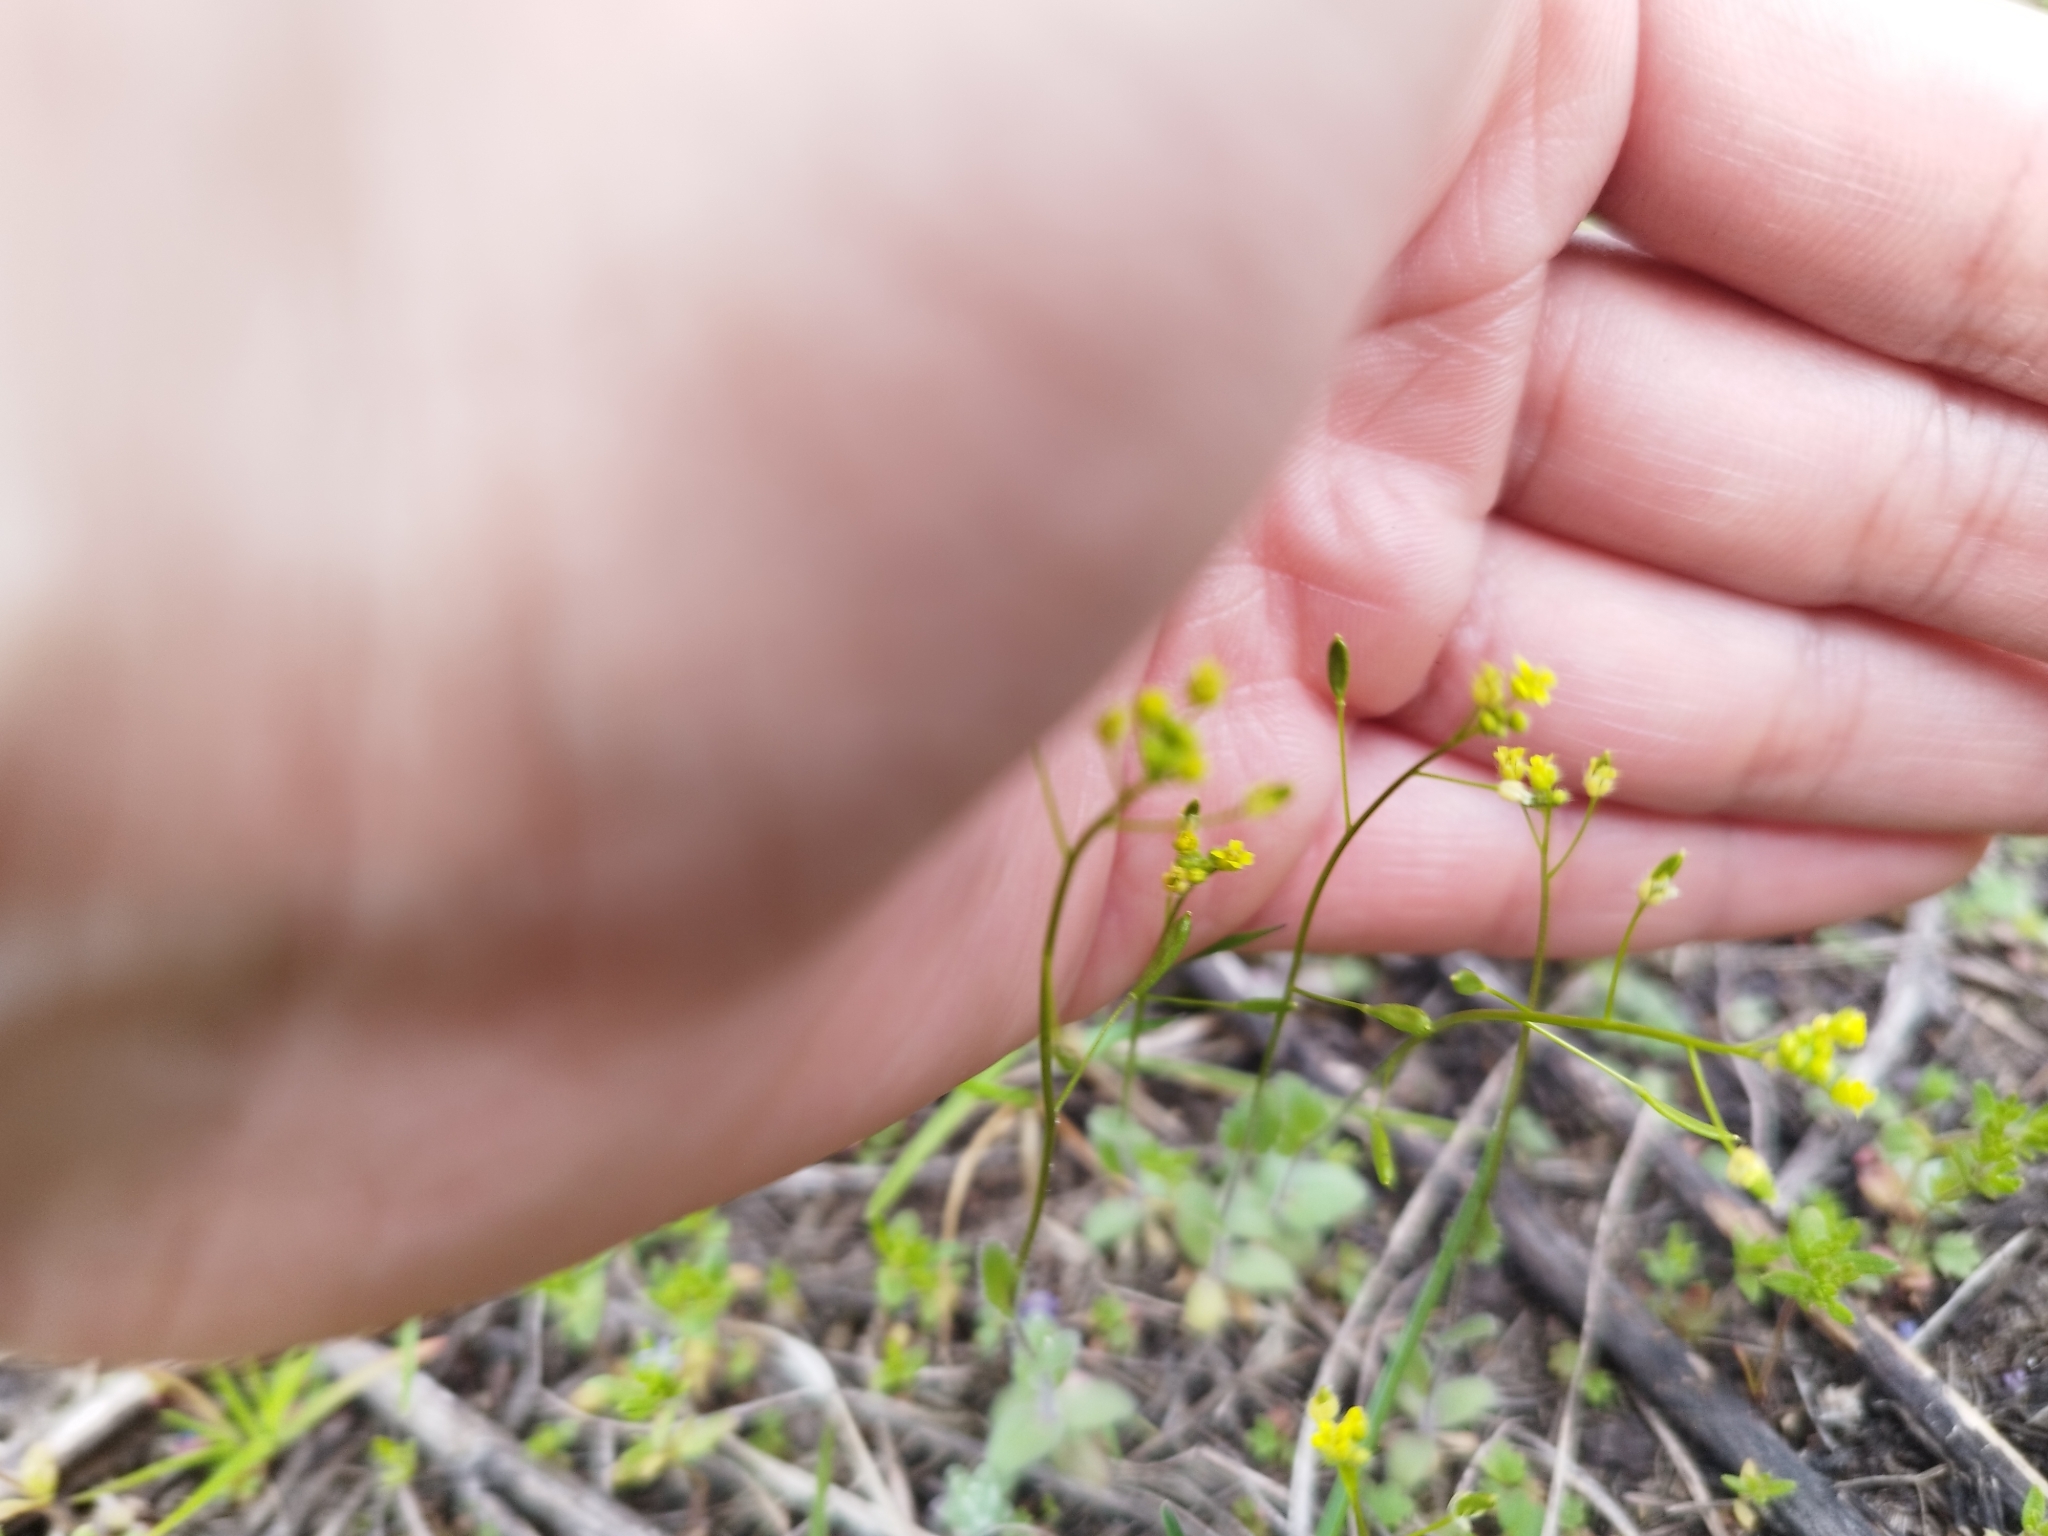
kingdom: Plantae
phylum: Tracheophyta
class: Magnoliopsida
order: Brassicales
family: Brassicaceae
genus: Draba
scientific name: Draba nemorosa
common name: Wood whitlow-grass
